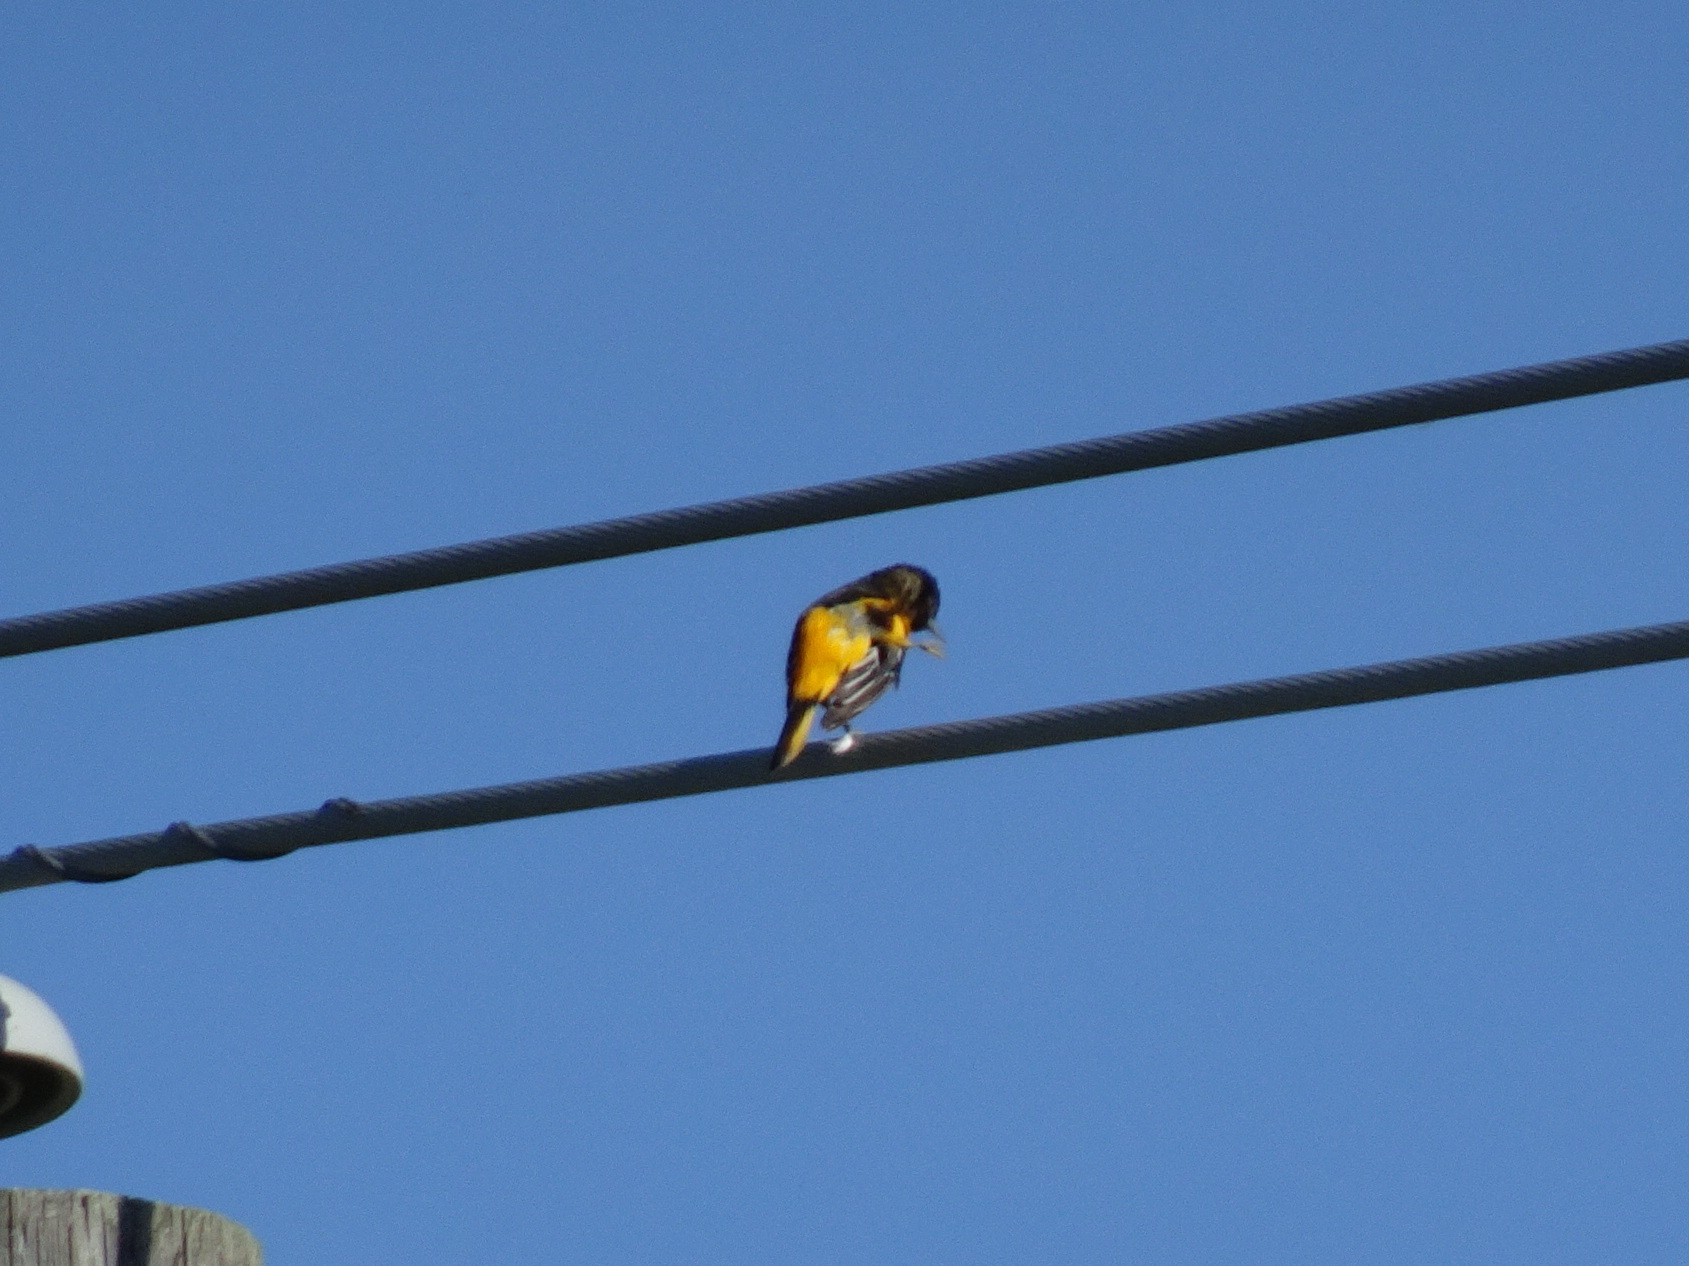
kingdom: Animalia
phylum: Chordata
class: Aves
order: Passeriformes
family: Icteridae
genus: Icterus
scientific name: Icterus galbula
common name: Baltimore oriole
